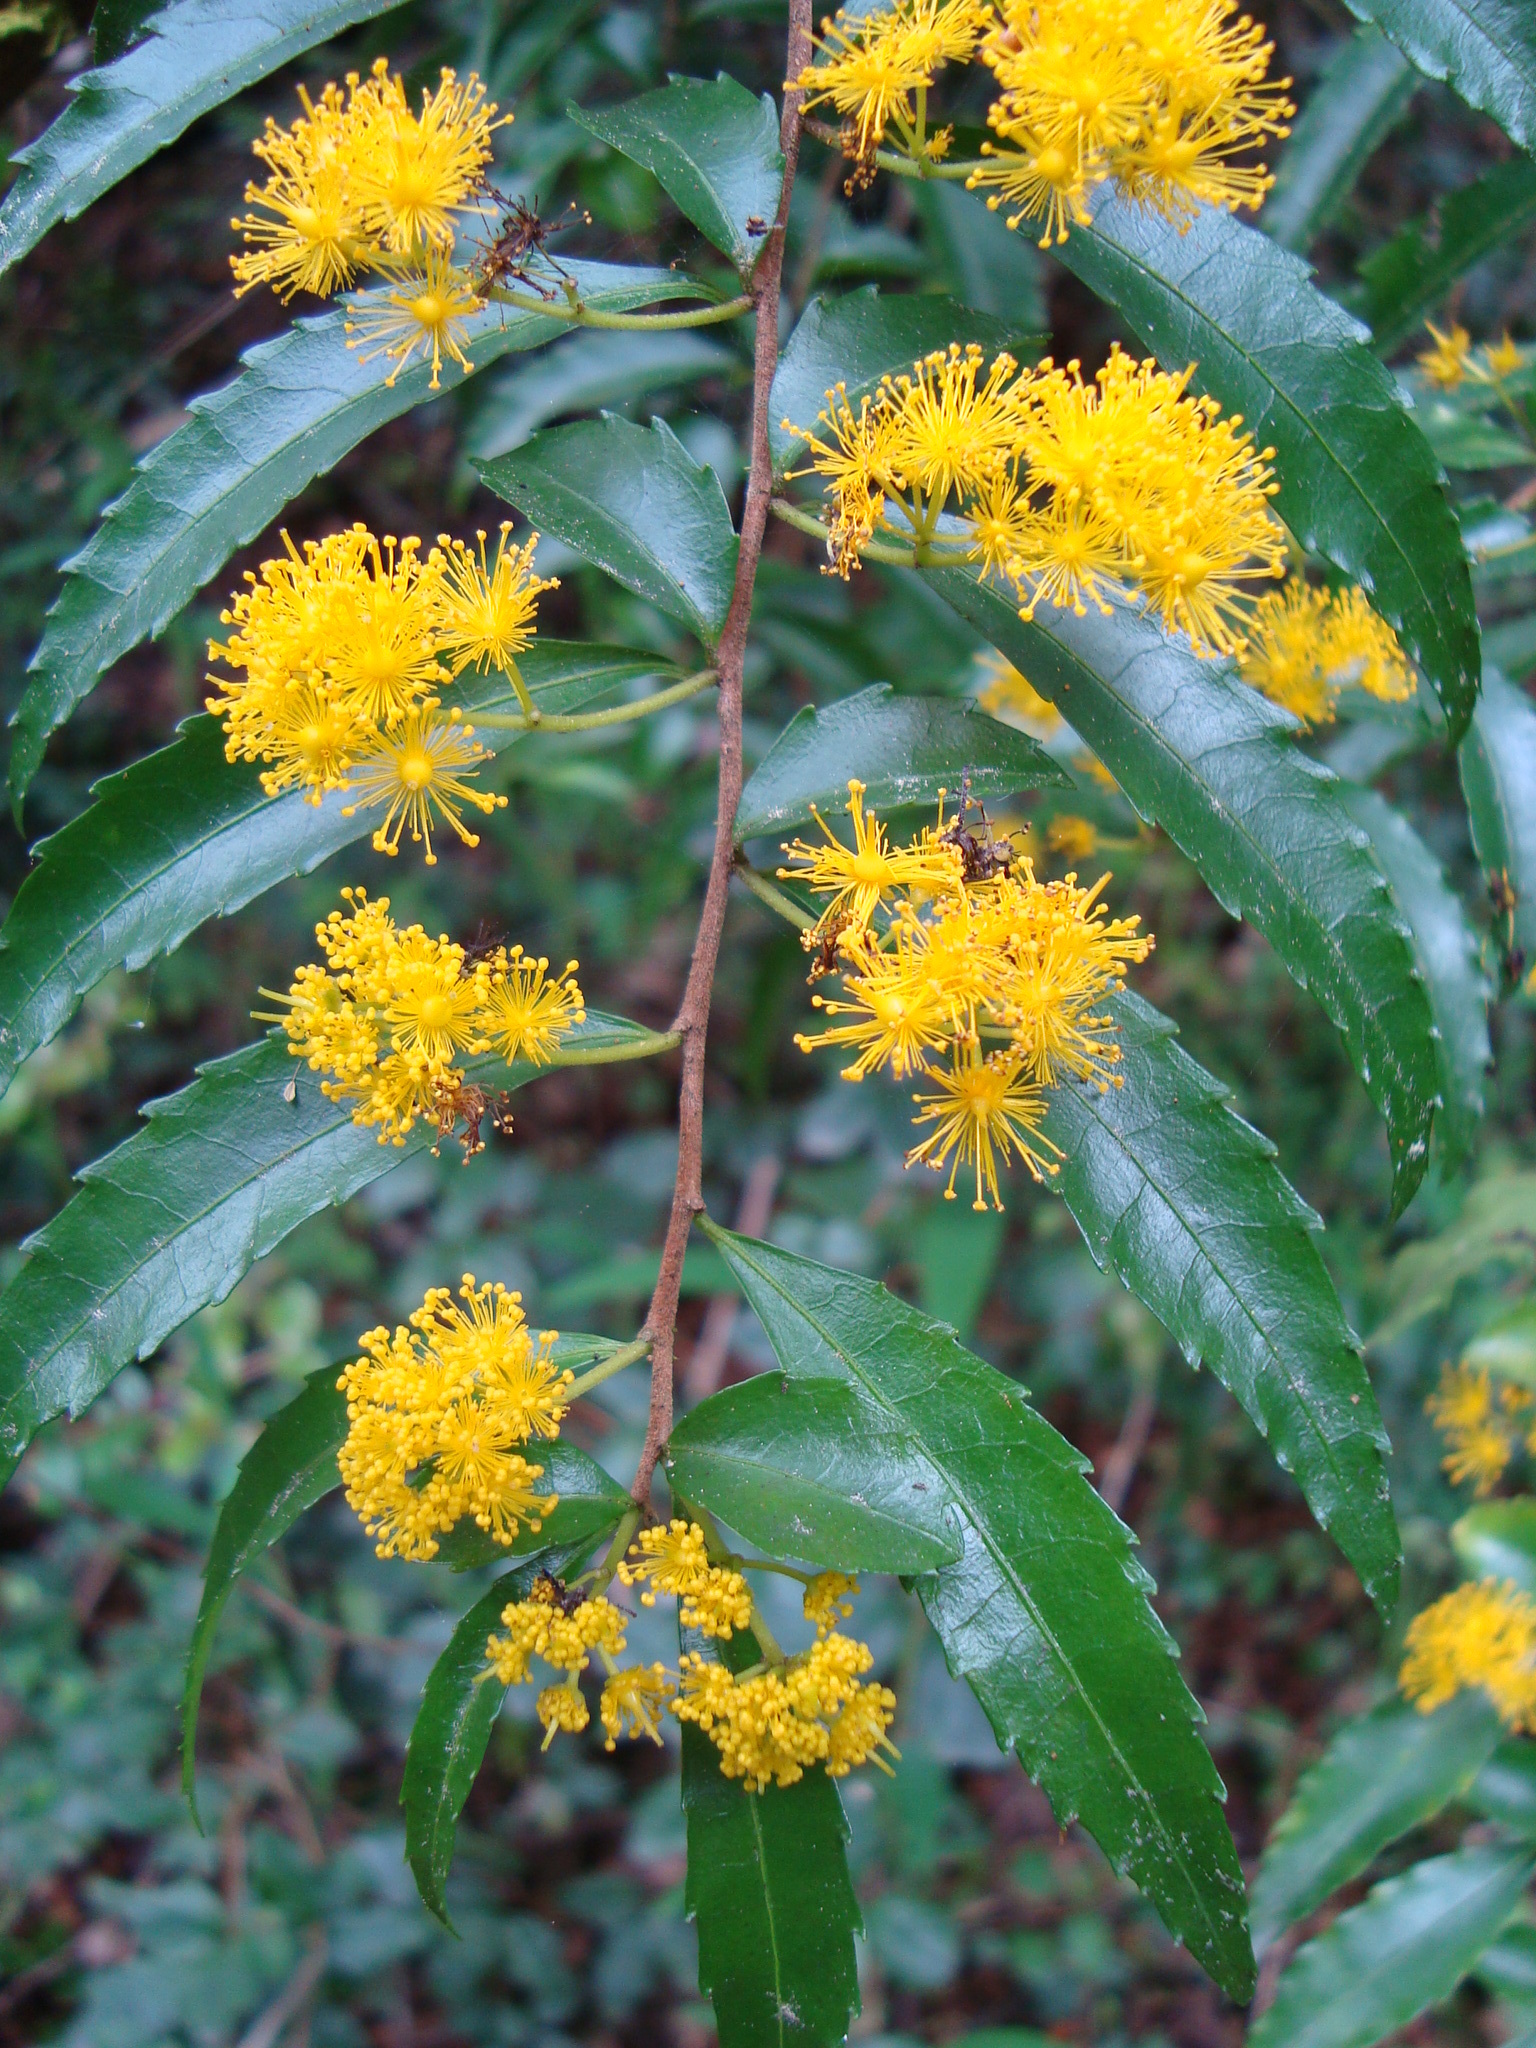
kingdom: Plantae
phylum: Tracheophyta
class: Magnoliopsida
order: Malpighiales
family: Salicaceae
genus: Azara
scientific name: Azara lanceolata
